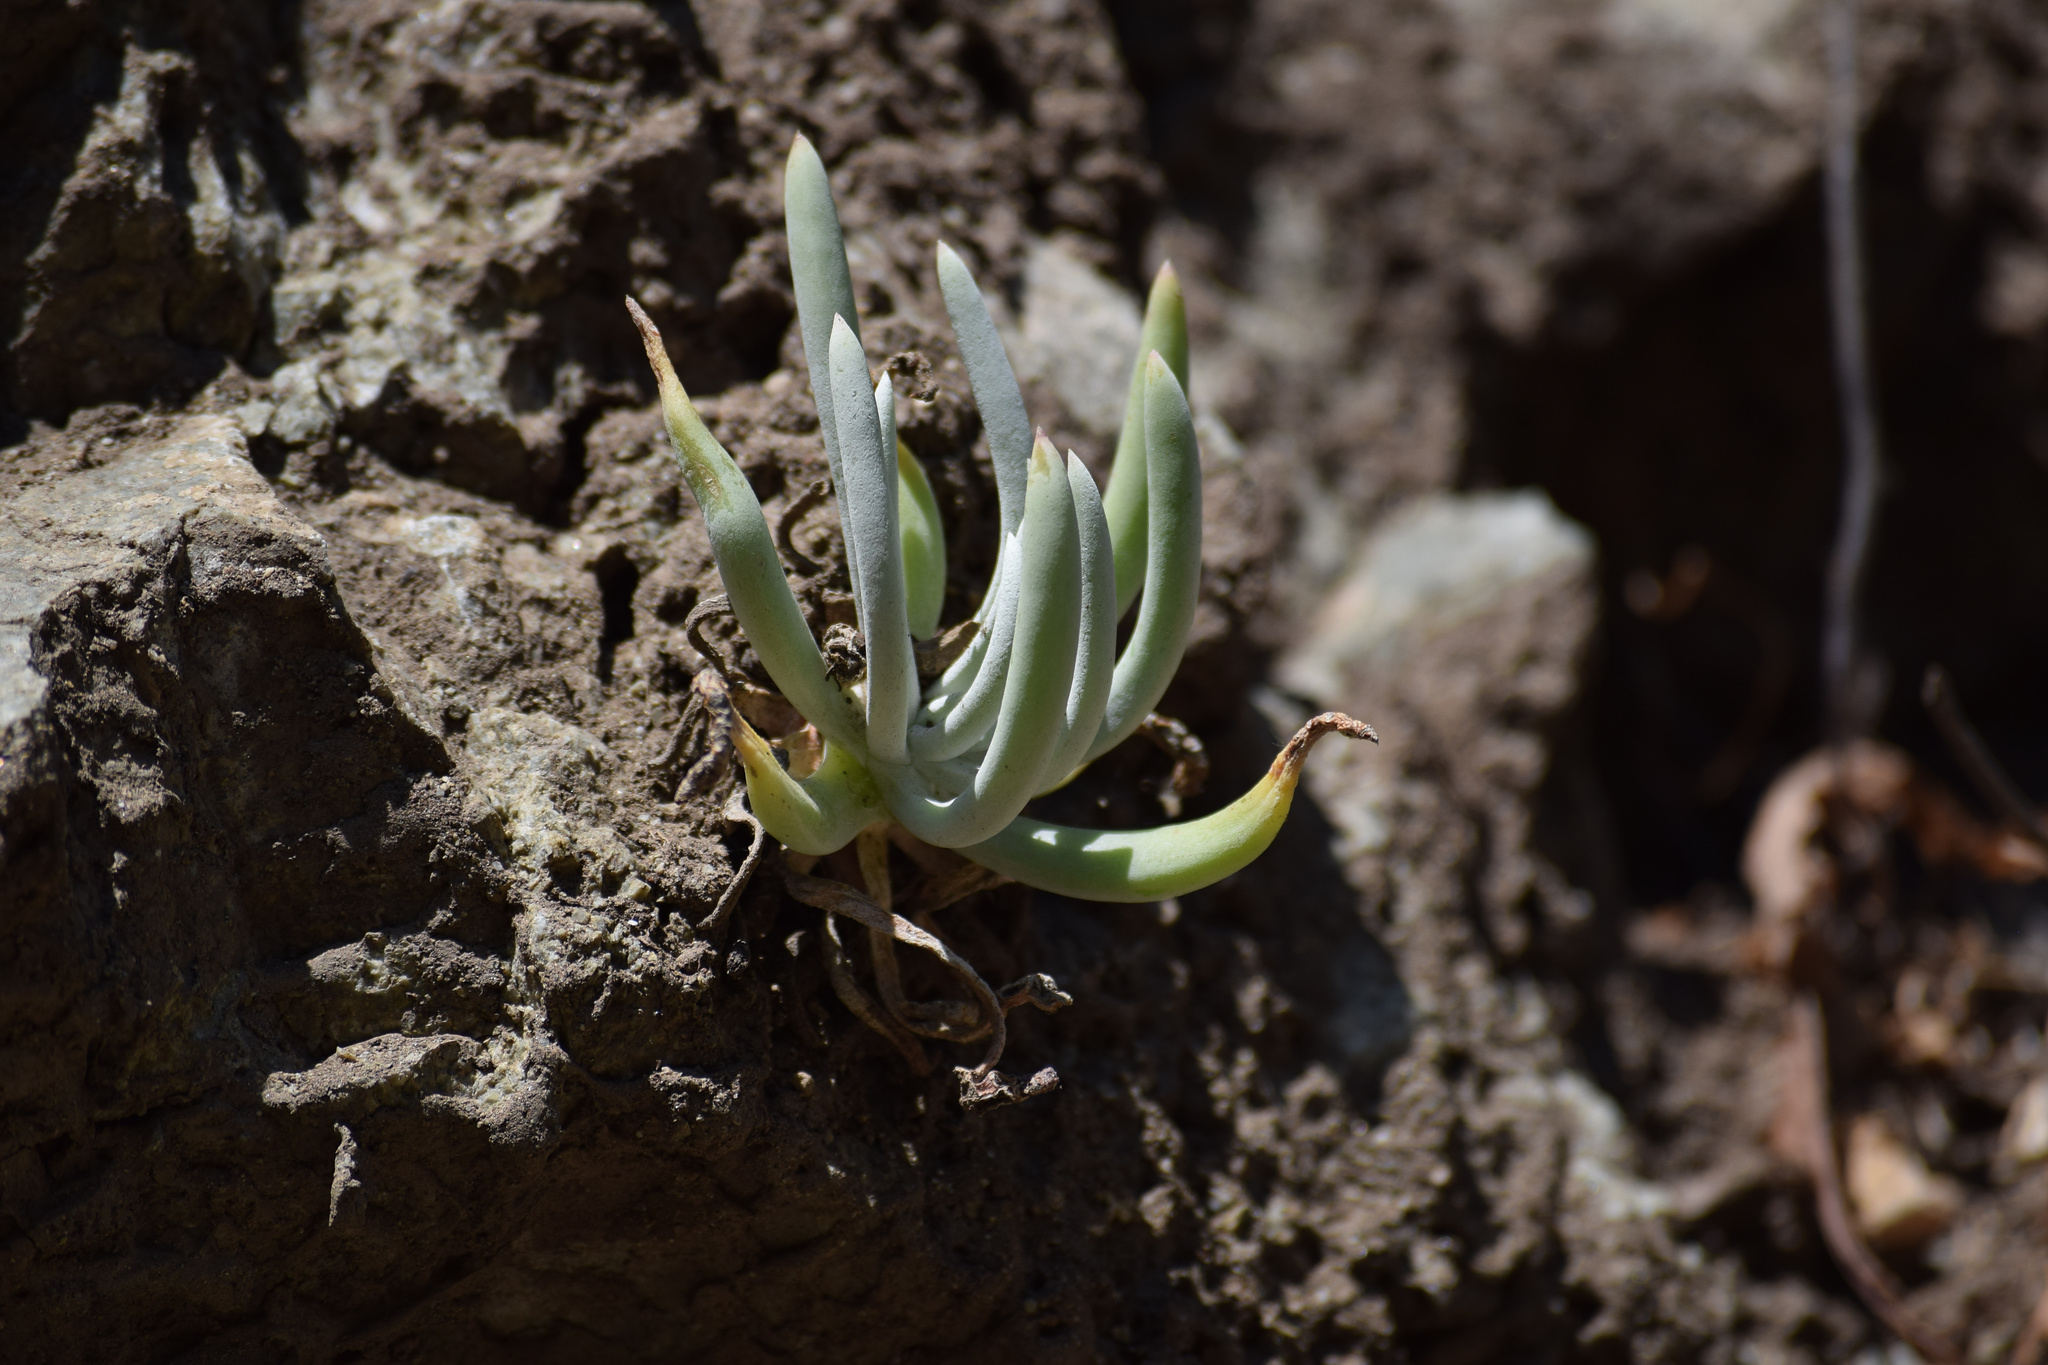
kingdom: Plantae
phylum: Tracheophyta
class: Magnoliopsida
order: Saxifragales
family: Crassulaceae
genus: Dudleya
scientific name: Dudleya densiflora
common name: San gabriel mountains dudleya
